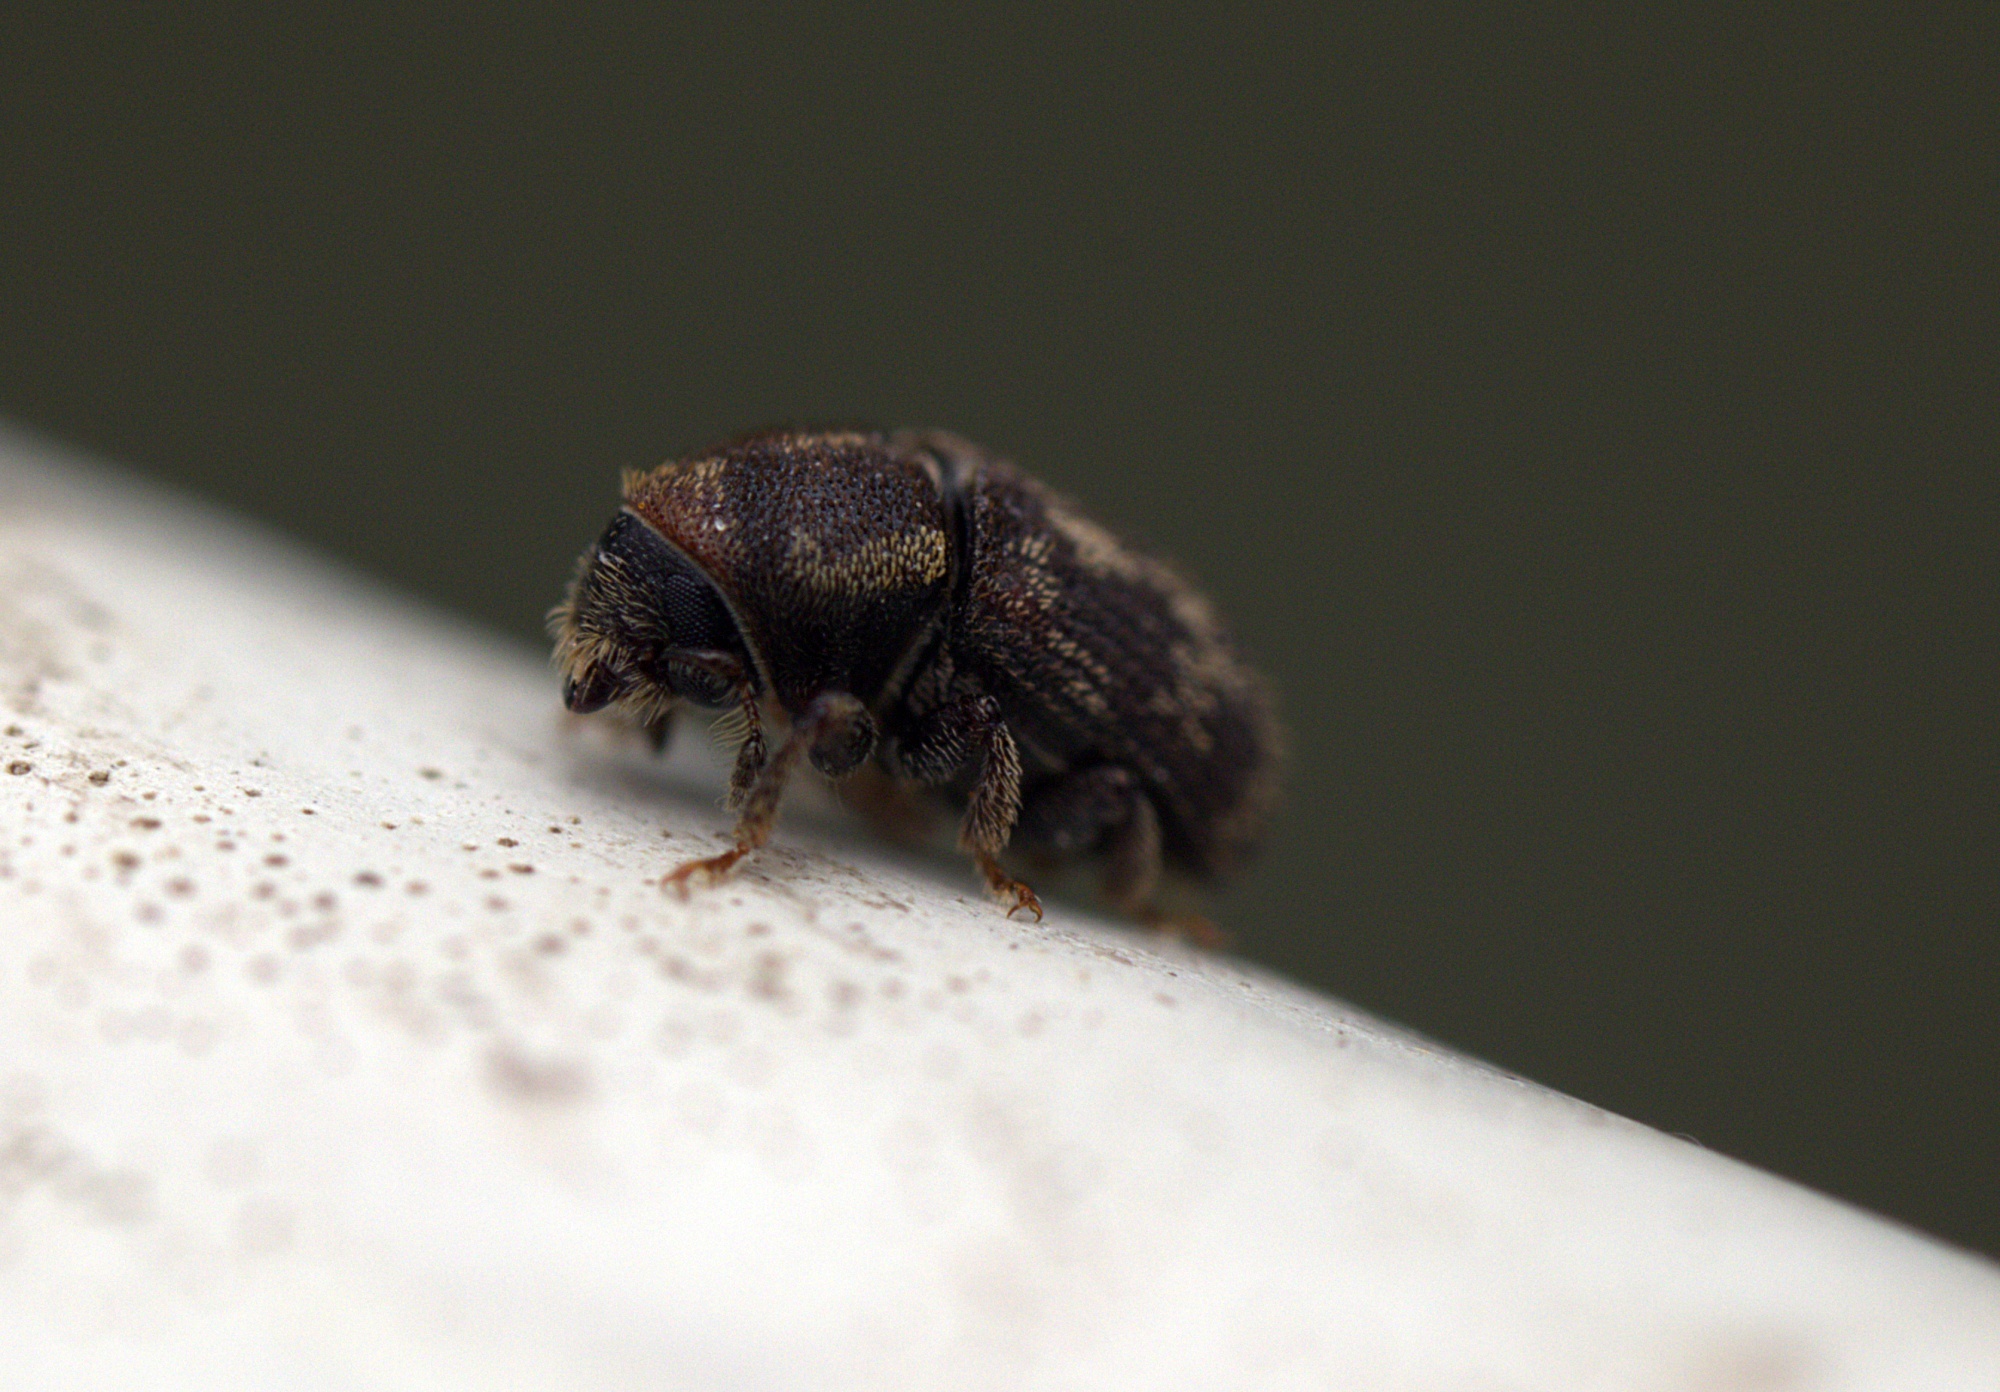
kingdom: Animalia
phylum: Arthropoda
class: Insecta
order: Coleoptera
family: Curculionidae
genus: Chaetoptelius
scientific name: Chaetoptelius mundulus
